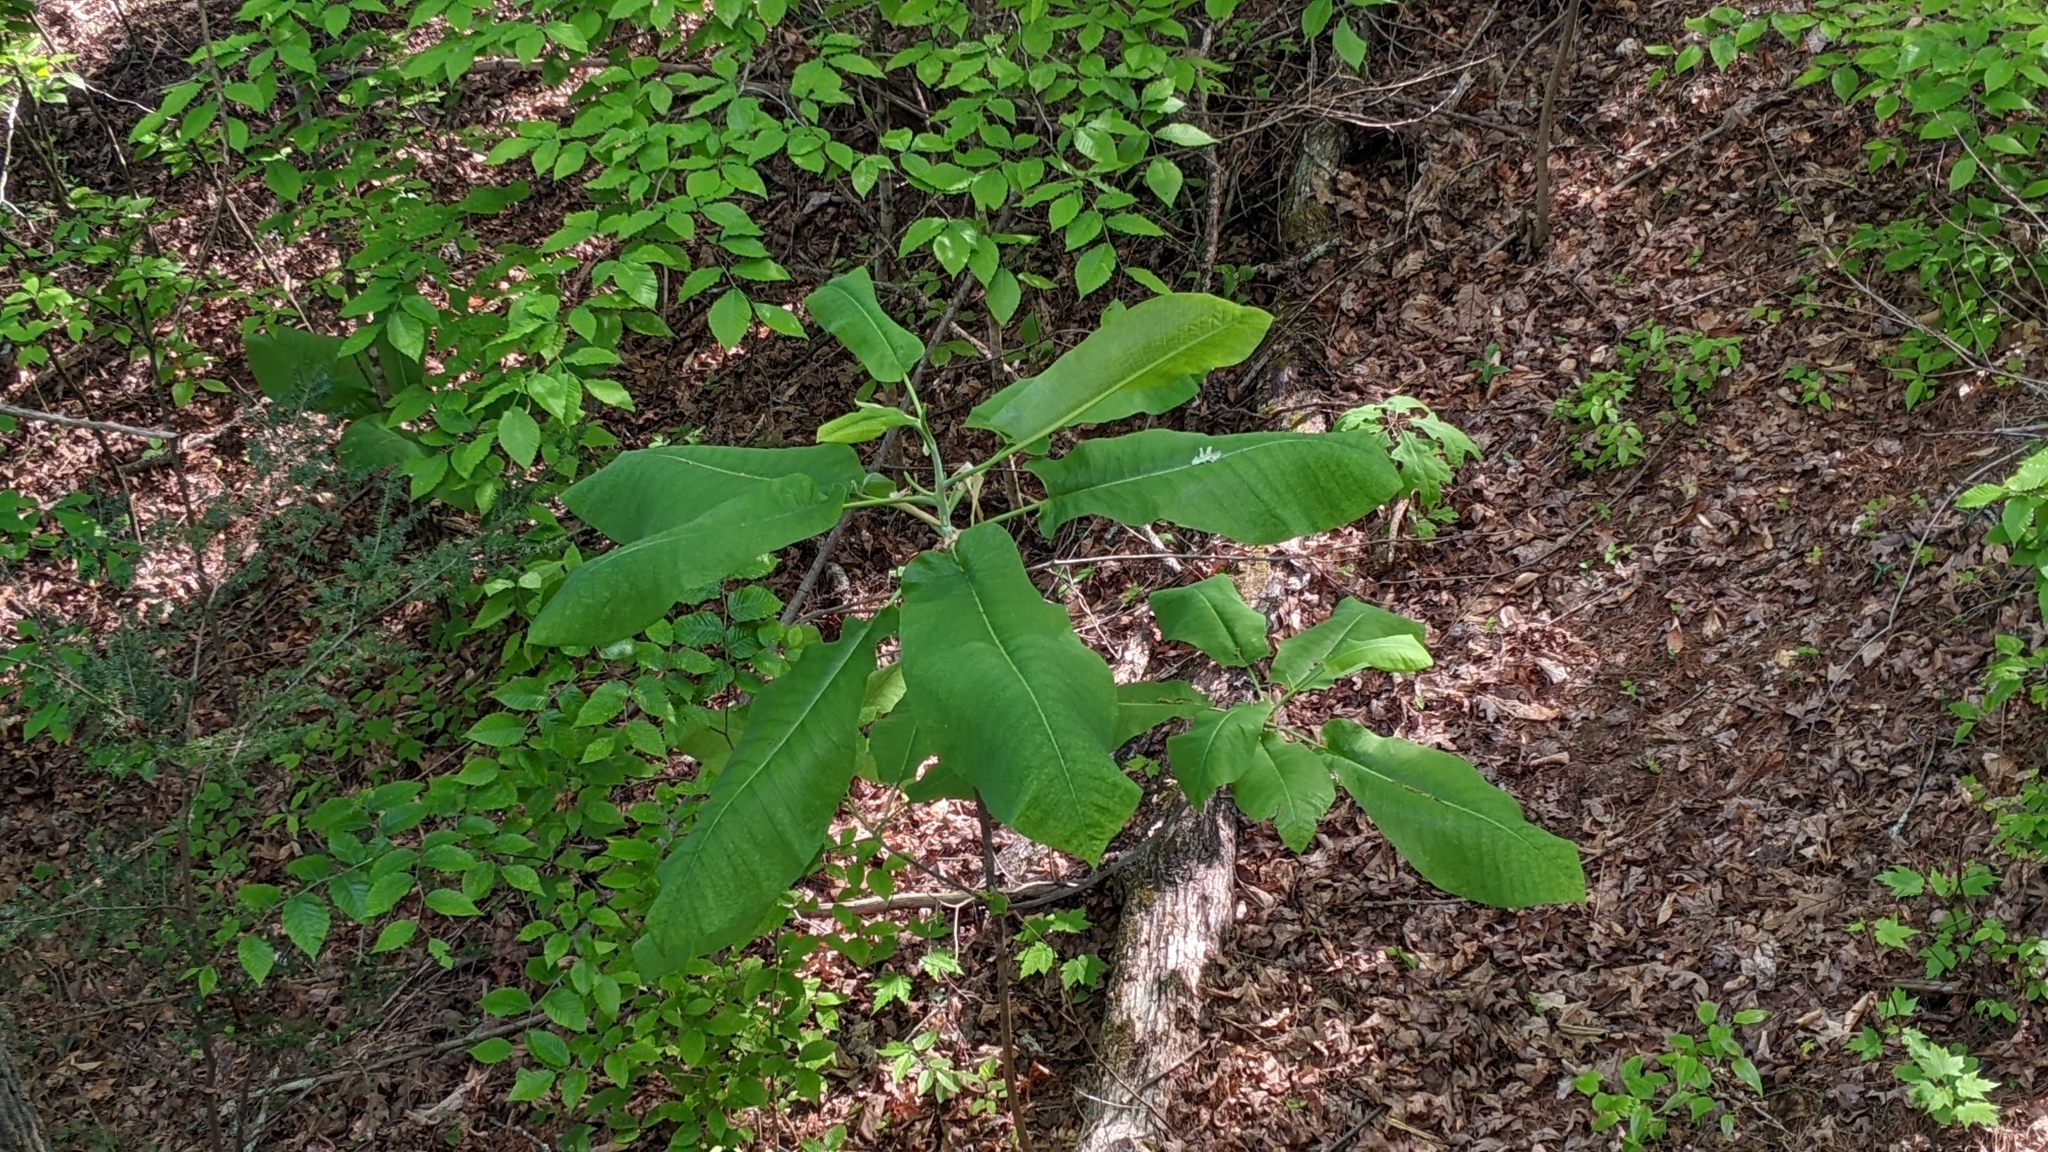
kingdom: Plantae
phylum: Tracheophyta
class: Magnoliopsida
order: Magnoliales
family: Magnoliaceae
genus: Magnolia
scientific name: Magnolia macrophylla
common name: Big-leaf magnolia
